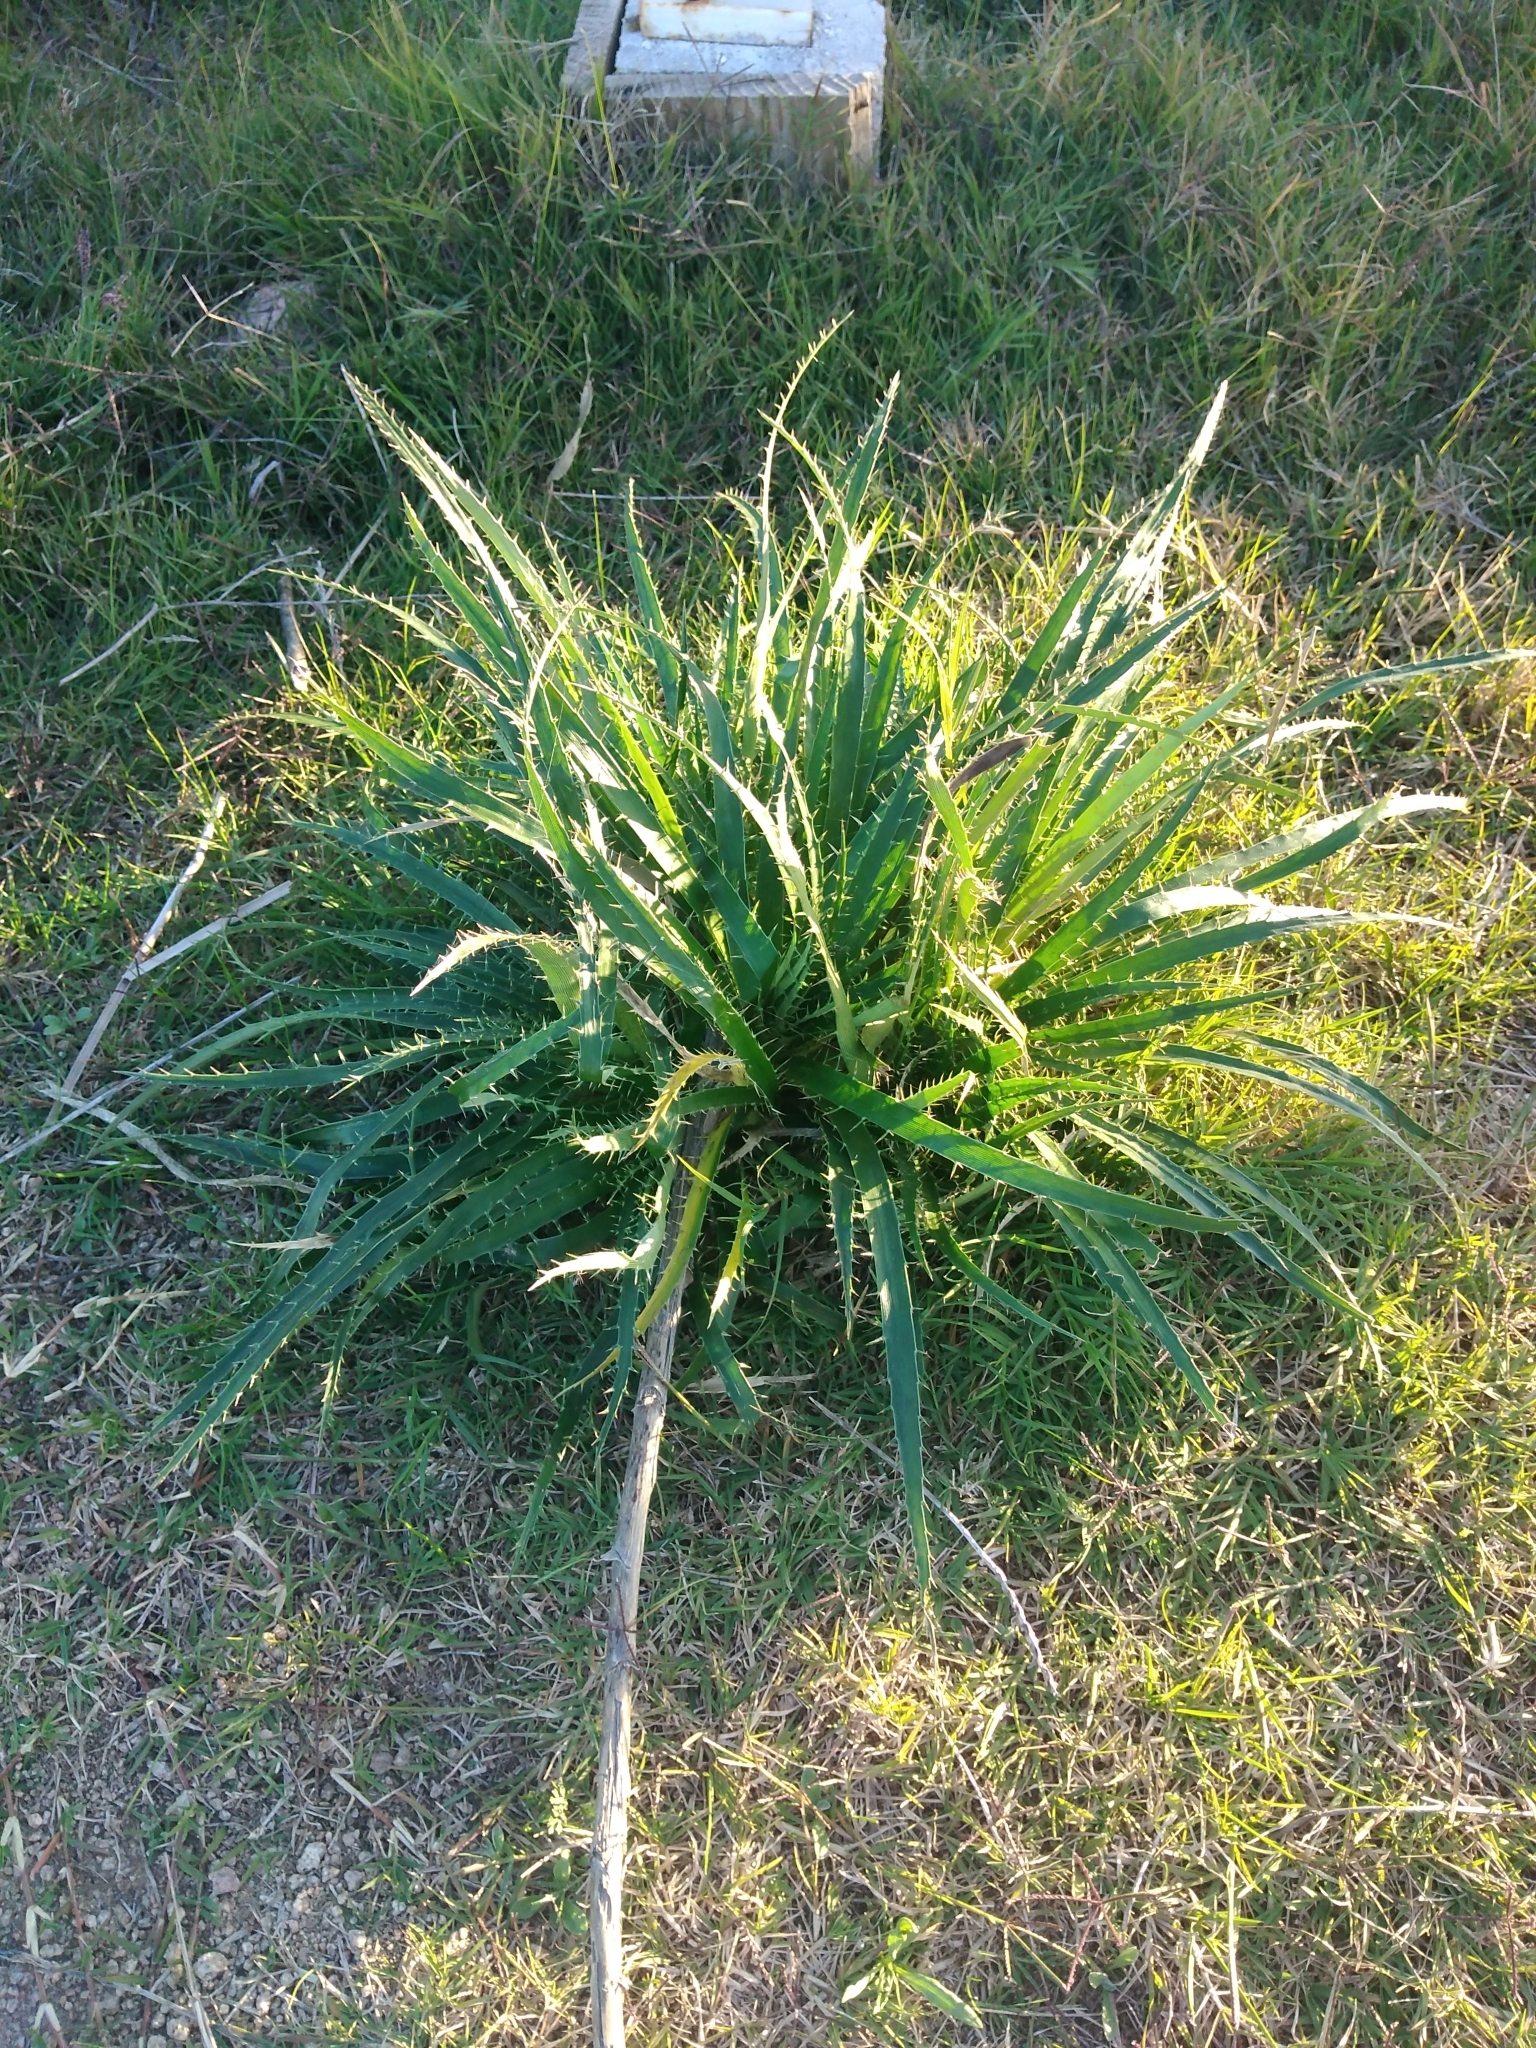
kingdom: Plantae
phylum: Tracheophyta
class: Magnoliopsida
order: Apiales
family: Apiaceae
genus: Eryngium
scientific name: Eryngium horridum
